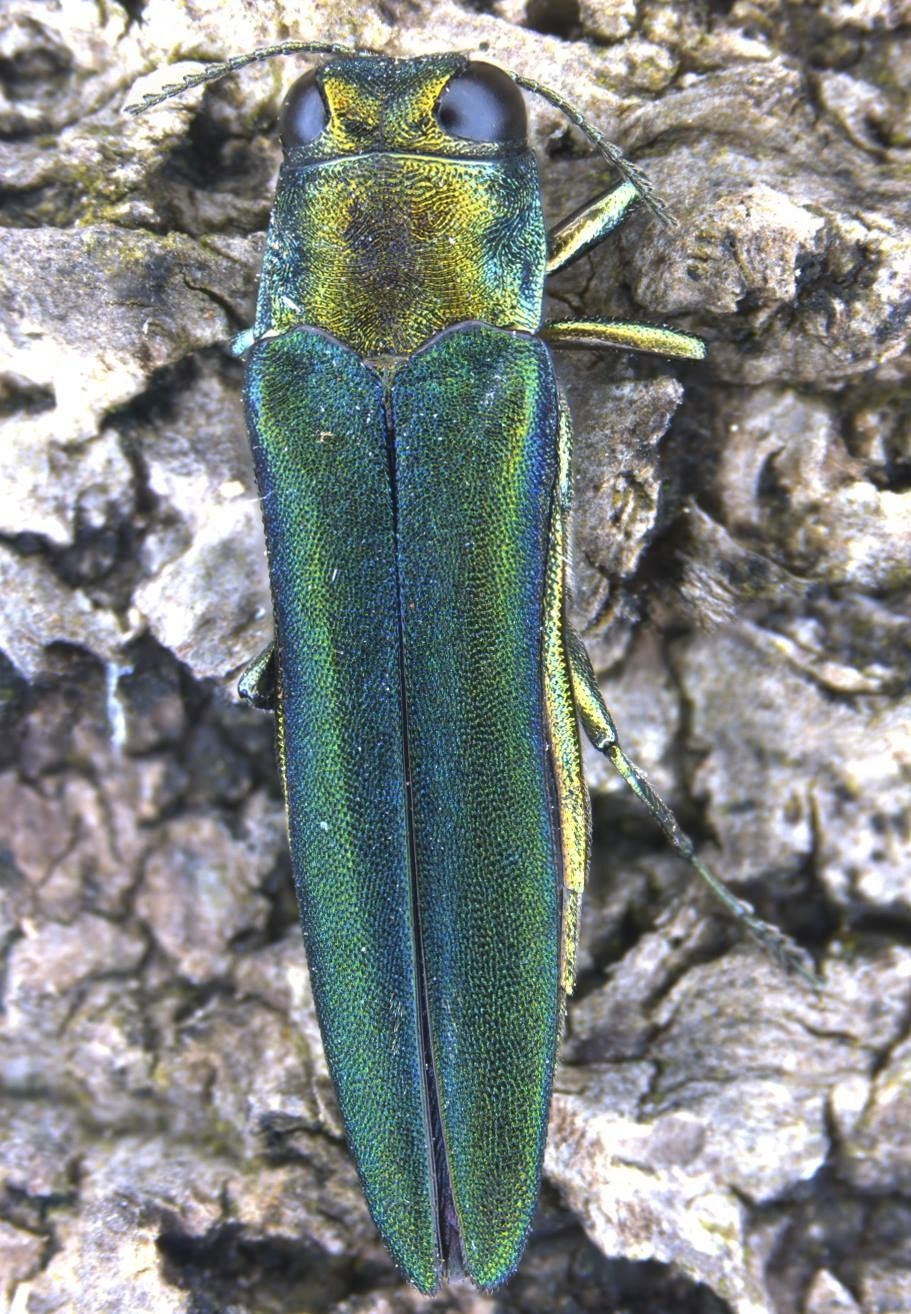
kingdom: Animalia
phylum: Arthropoda
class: Insecta
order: Coleoptera
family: Buprestidae
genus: Agrilus
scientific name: Agrilus planipennis
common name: Emerald ash borer
